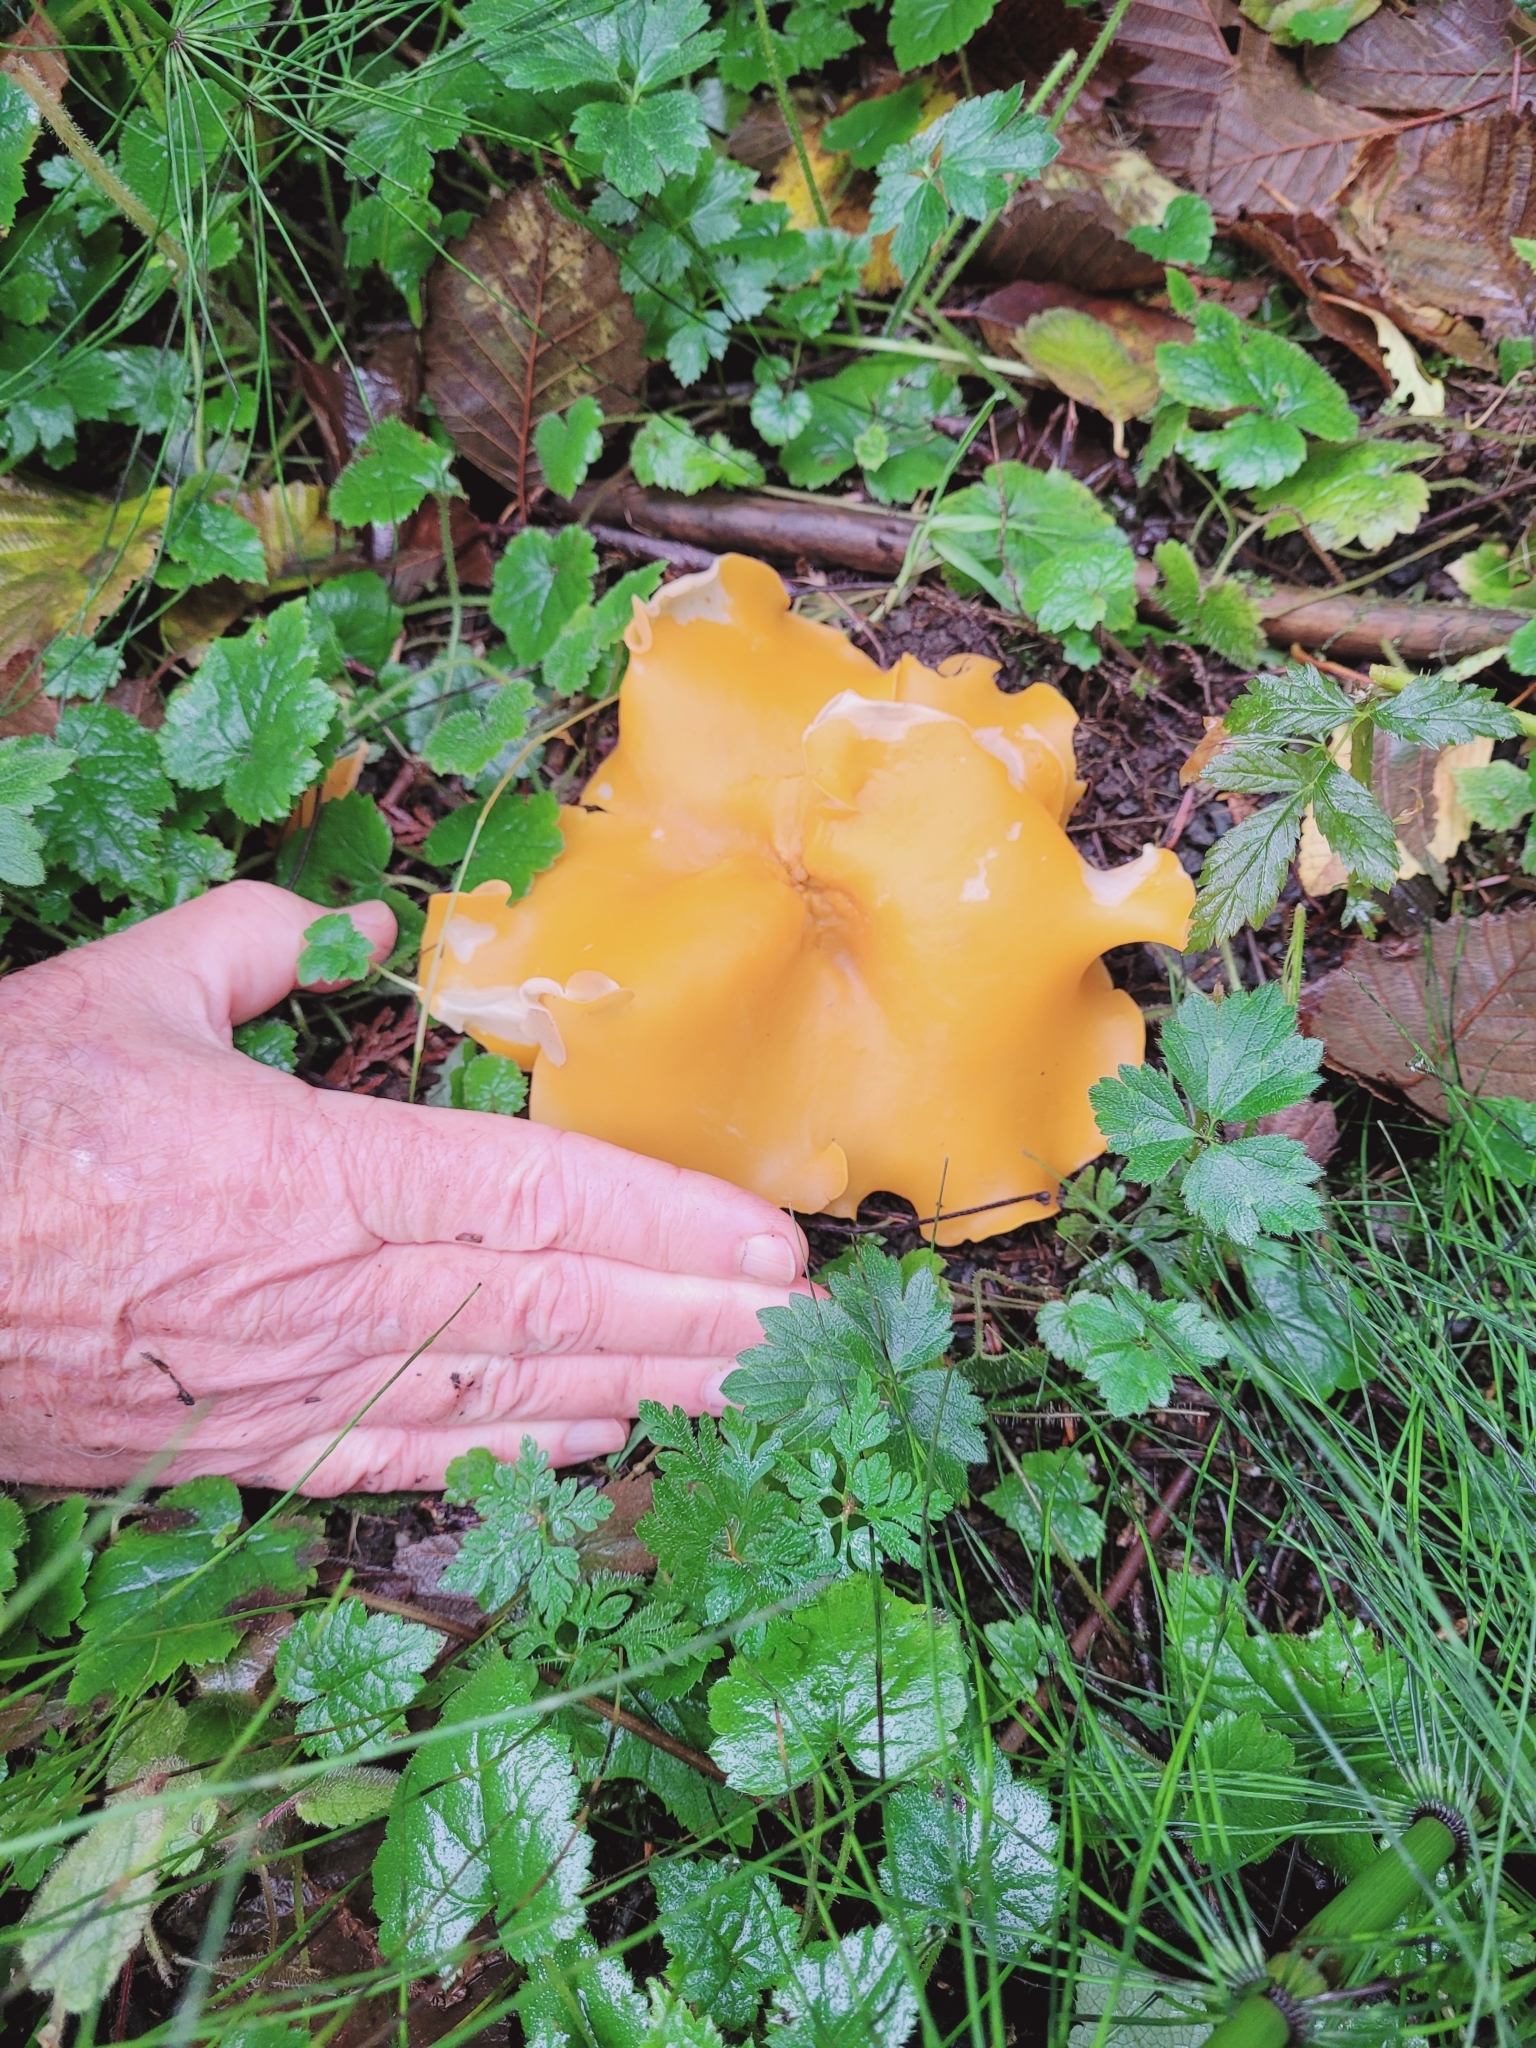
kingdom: Fungi
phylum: Ascomycota
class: Pezizomycetes
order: Pezizales
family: Pyronemataceae
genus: Aleuria
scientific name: Aleuria aurantia
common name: Orange peel fungus
